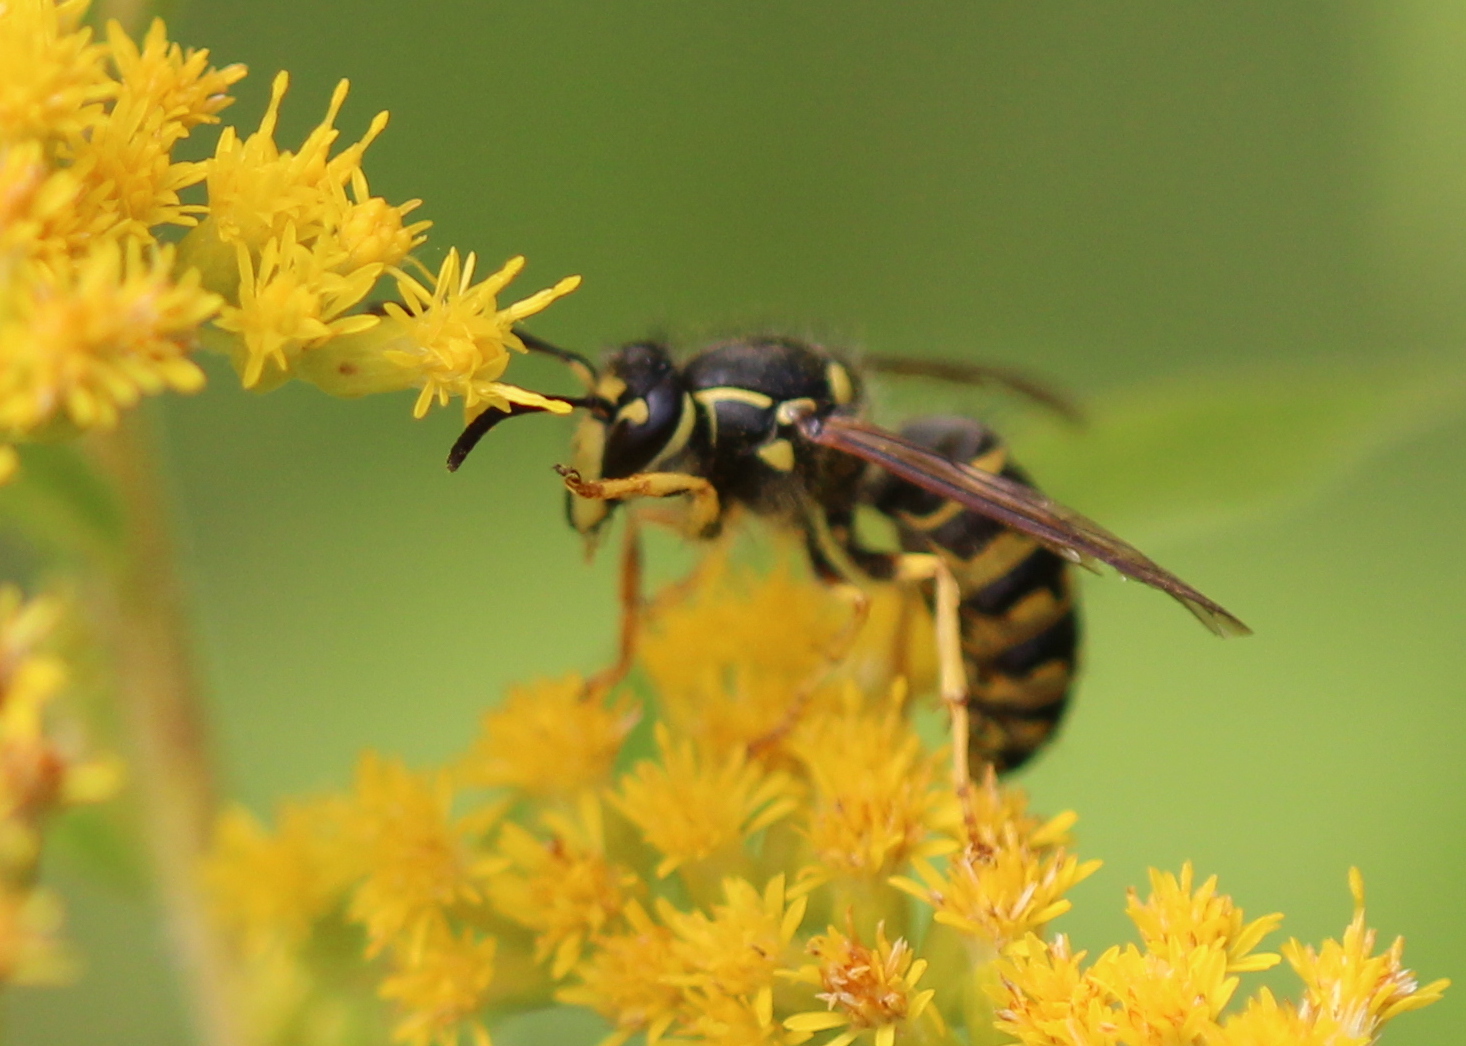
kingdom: Animalia
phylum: Arthropoda
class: Insecta
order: Hymenoptera
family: Vespidae
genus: Dolichovespula
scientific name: Dolichovespula arenaria
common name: Aerial yellowjacket
